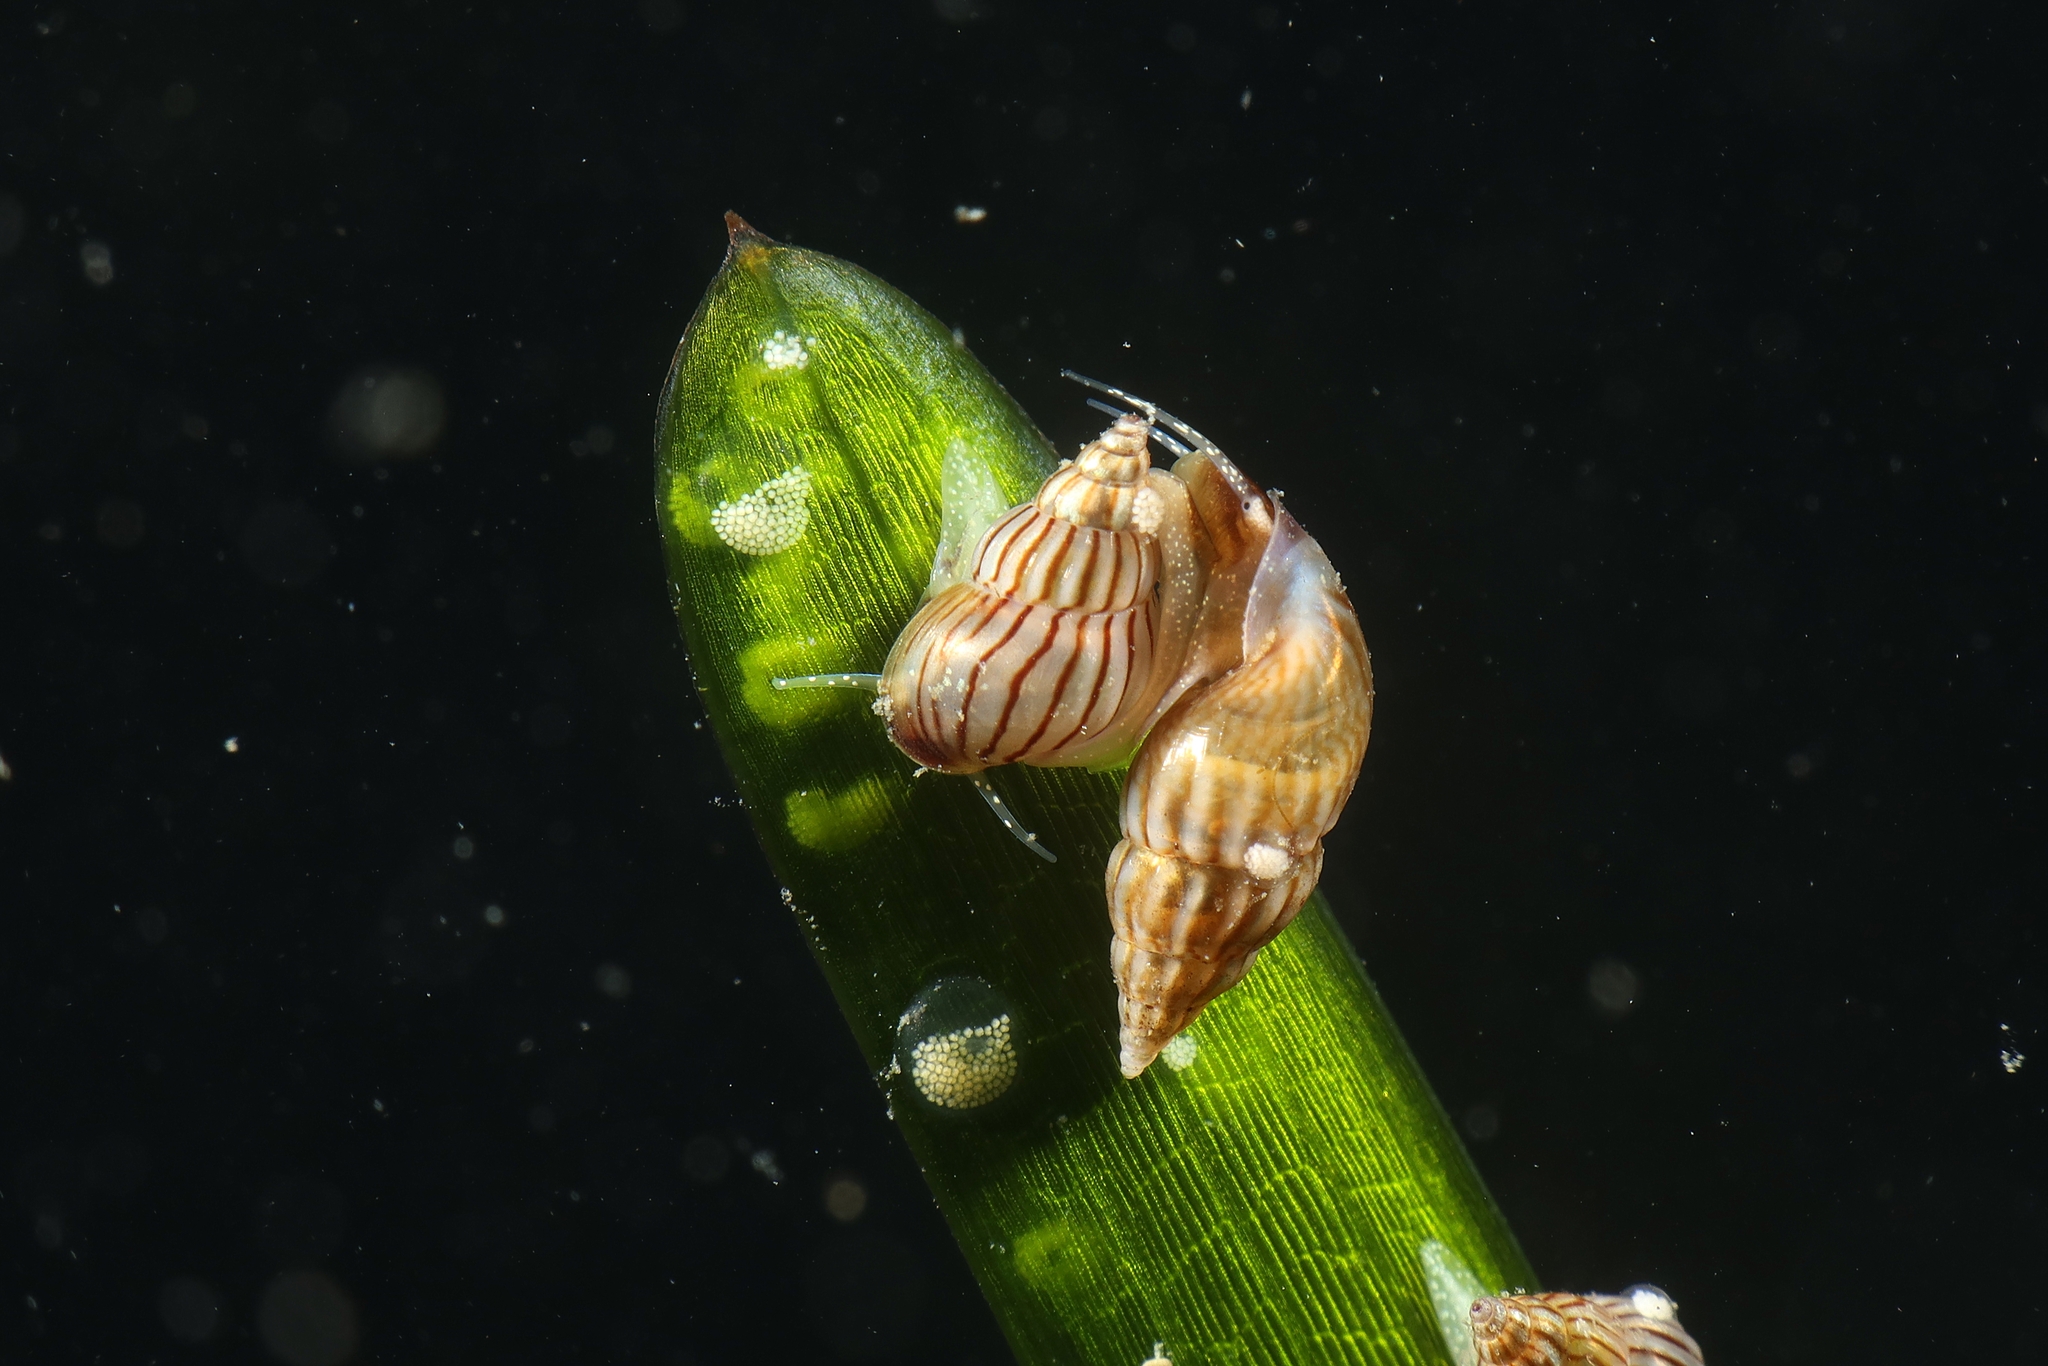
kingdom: Animalia
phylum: Mollusca
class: Gastropoda
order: Littorinimorpha
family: Rissoidae
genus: Pusillina
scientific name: Pusillina lineolata
